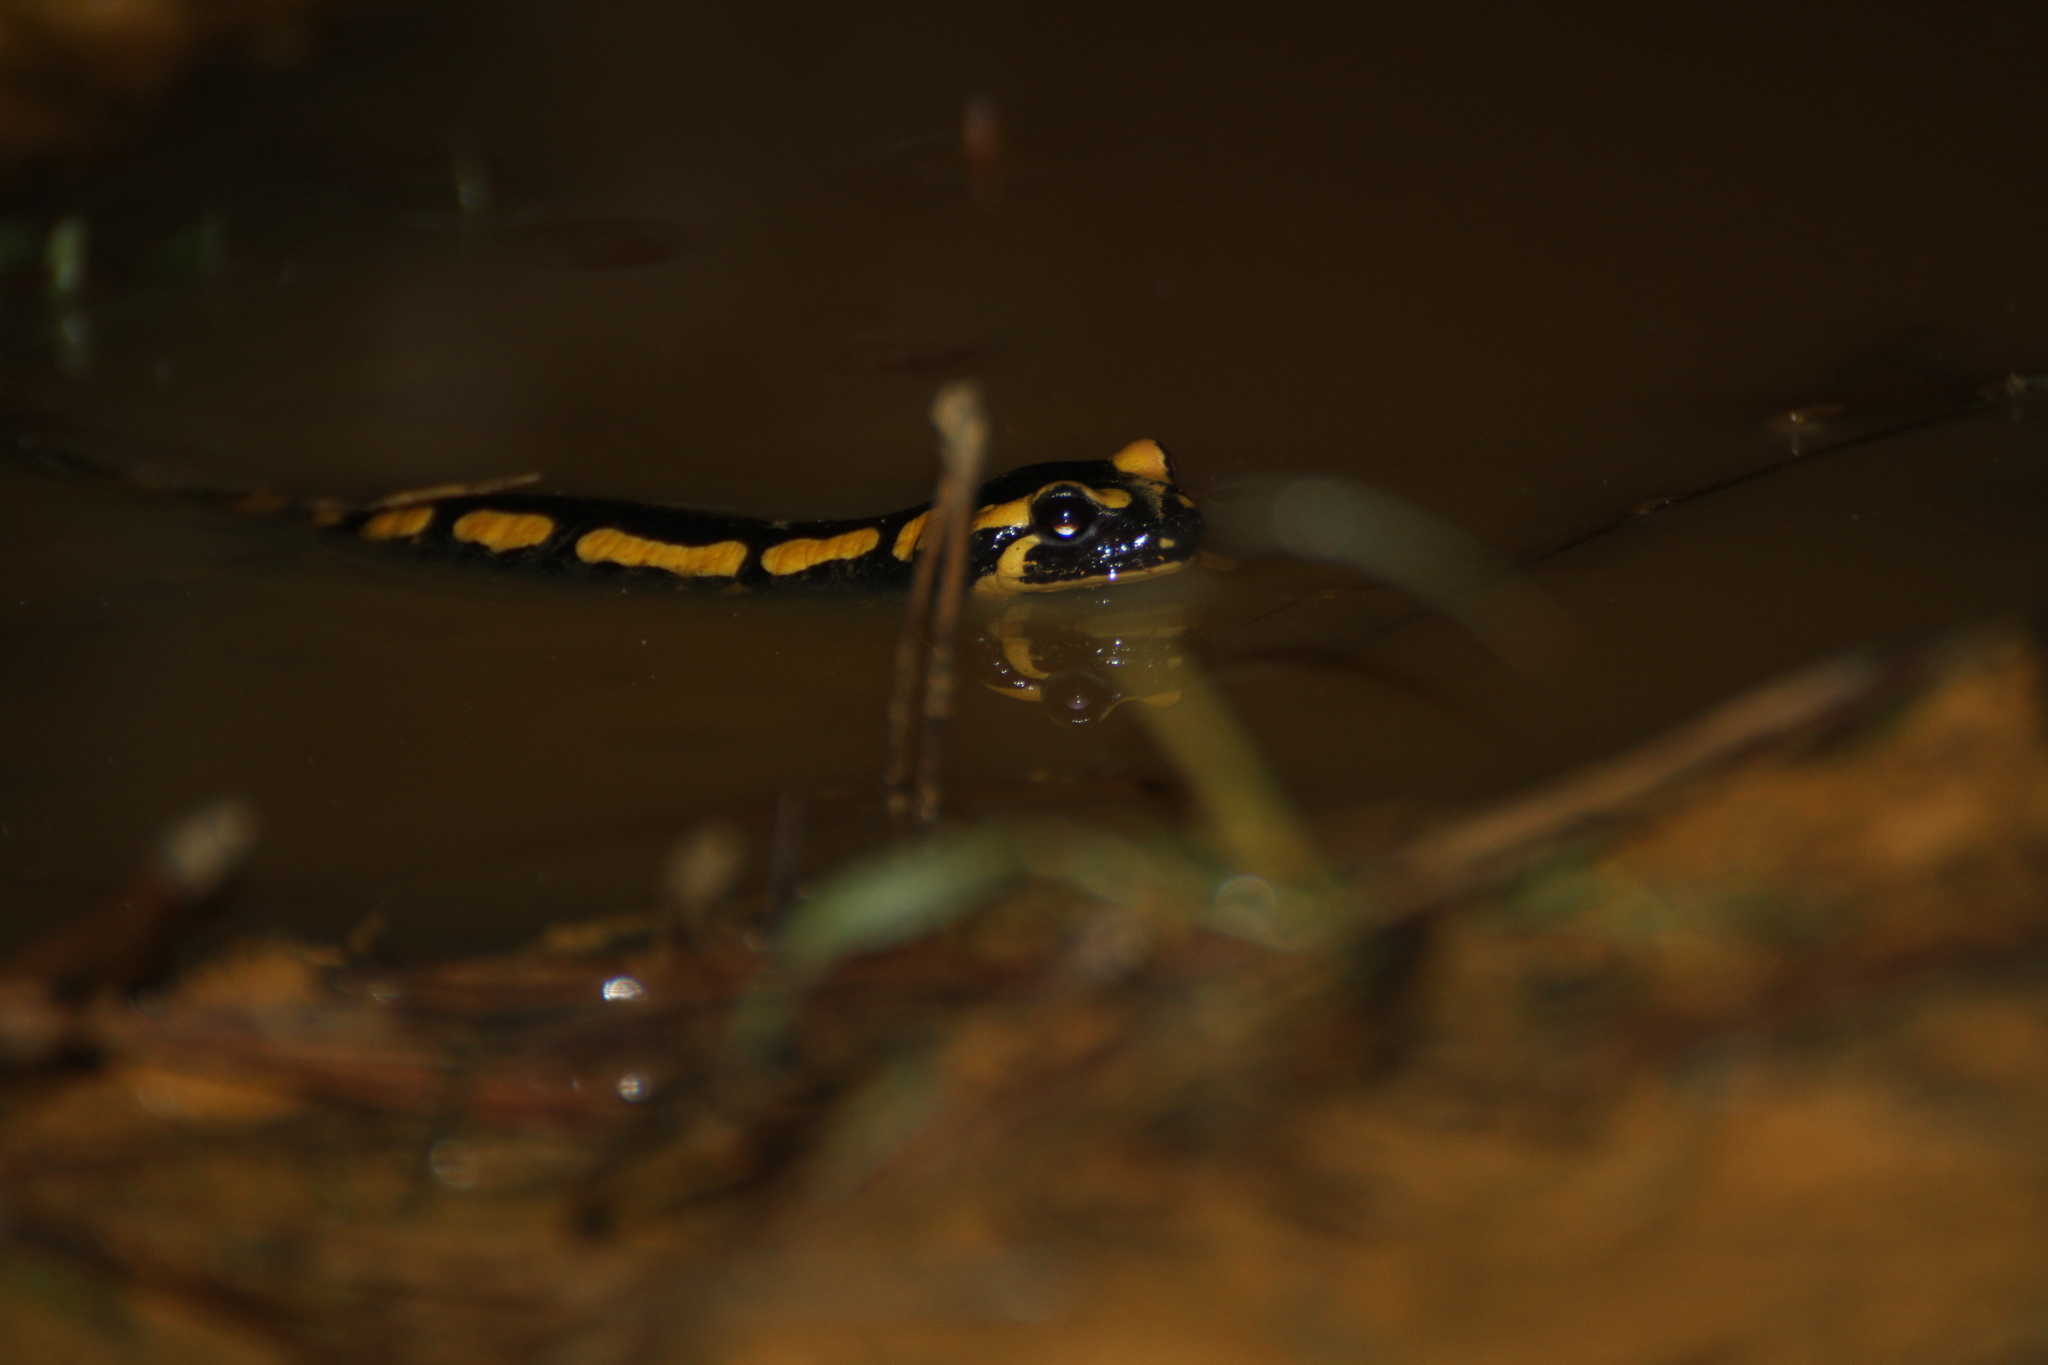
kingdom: Animalia
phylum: Chordata
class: Amphibia
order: Caudata
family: Salamandridae
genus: Salamandra
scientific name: Salamandra salamandra
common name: Fire salamander
